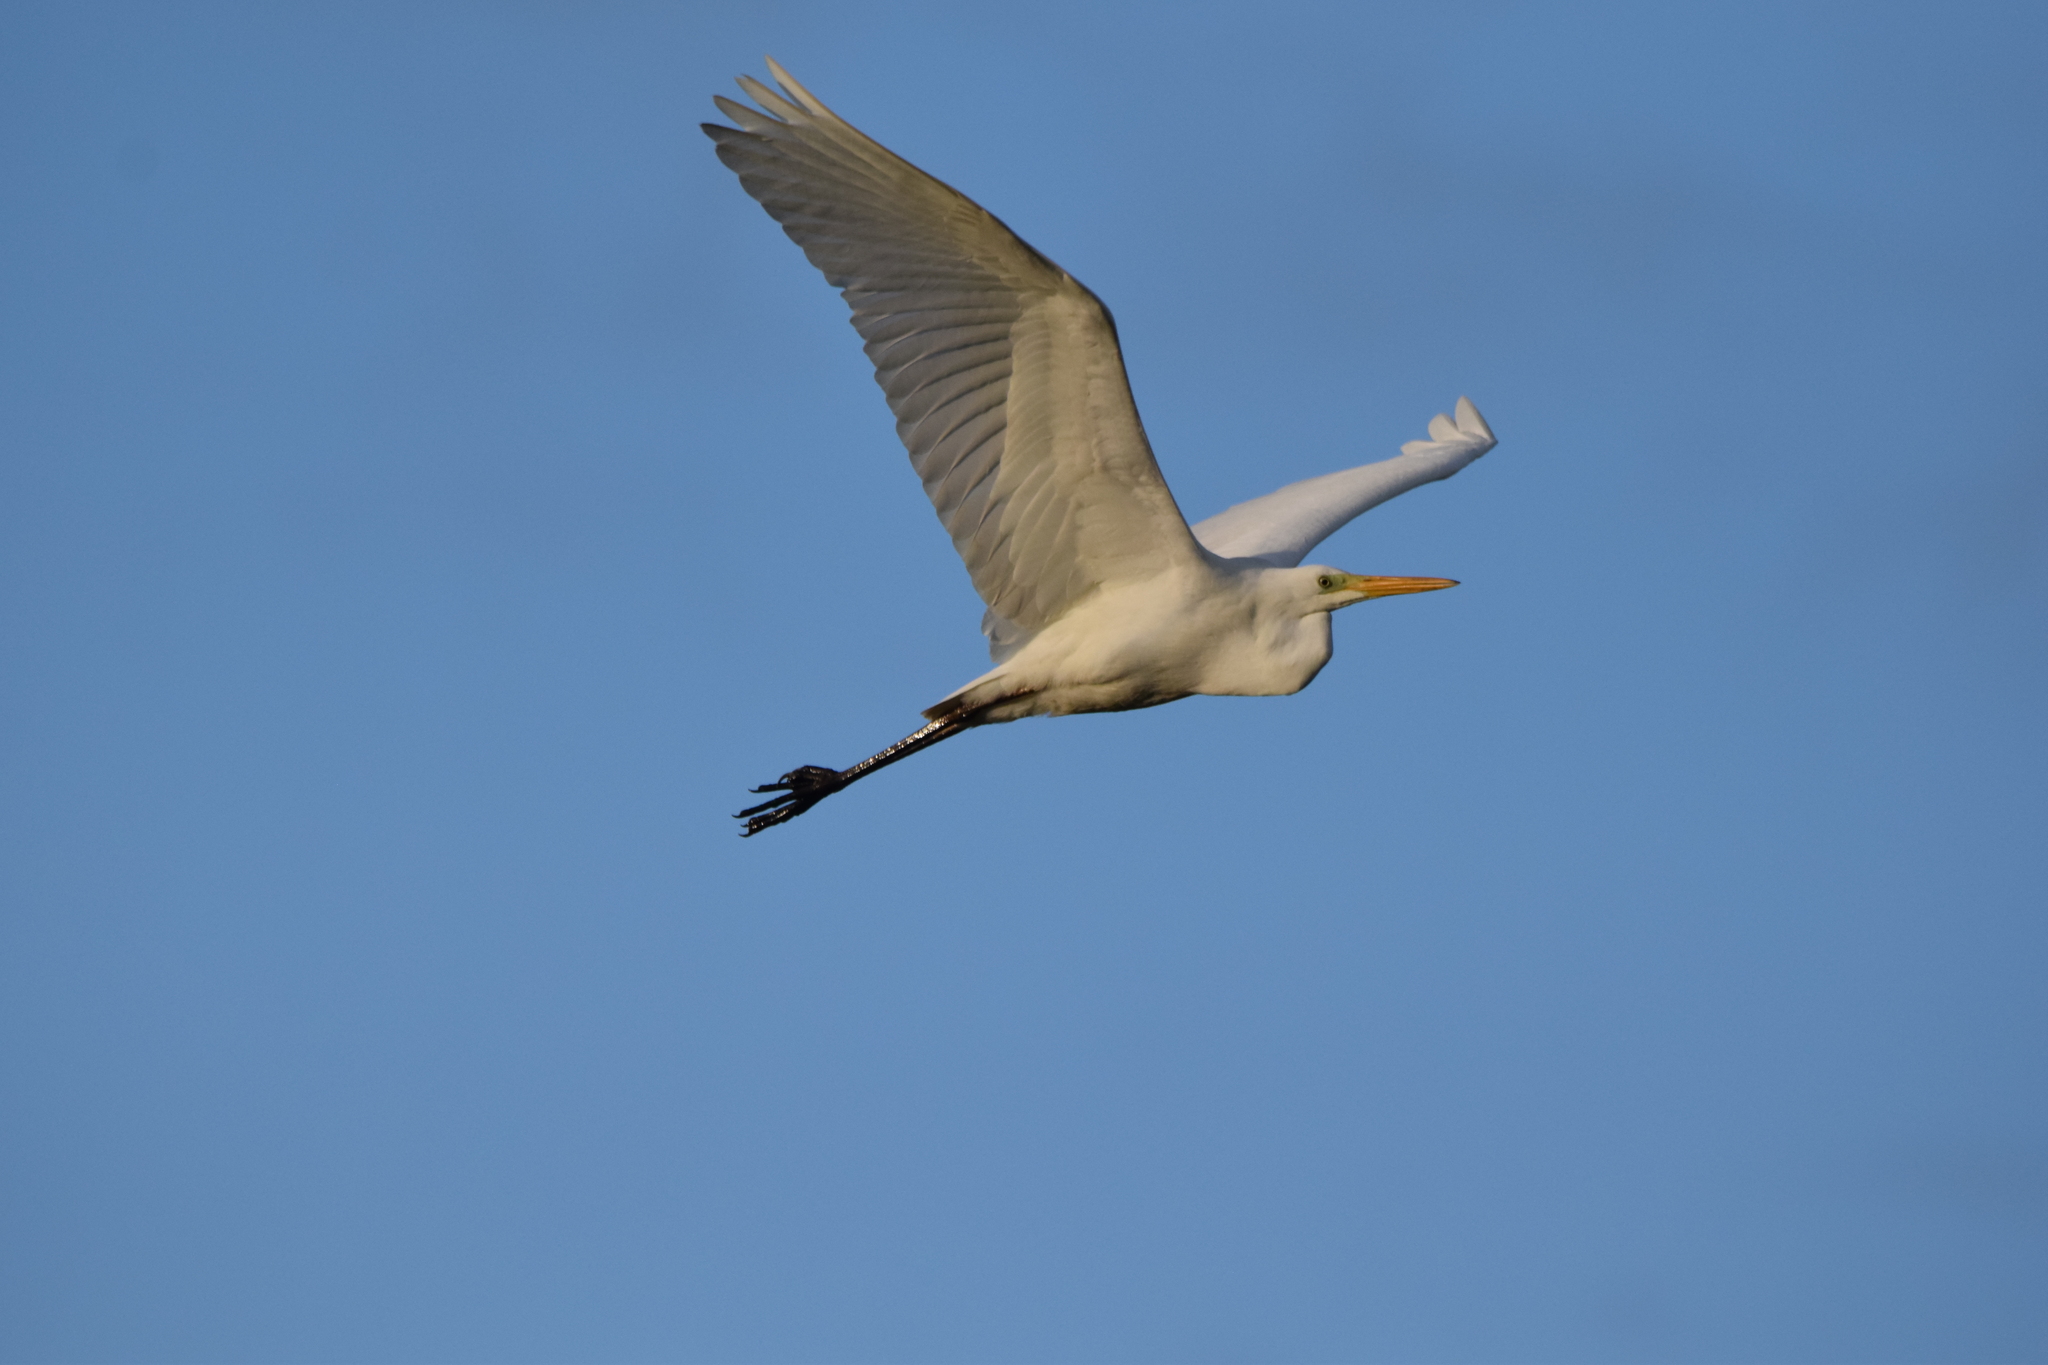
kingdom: Animalia
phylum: Chordata
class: Aves
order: Pelecaniformes
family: Ardeidae
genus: Ardea
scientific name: Ardea alba
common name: Great egret
